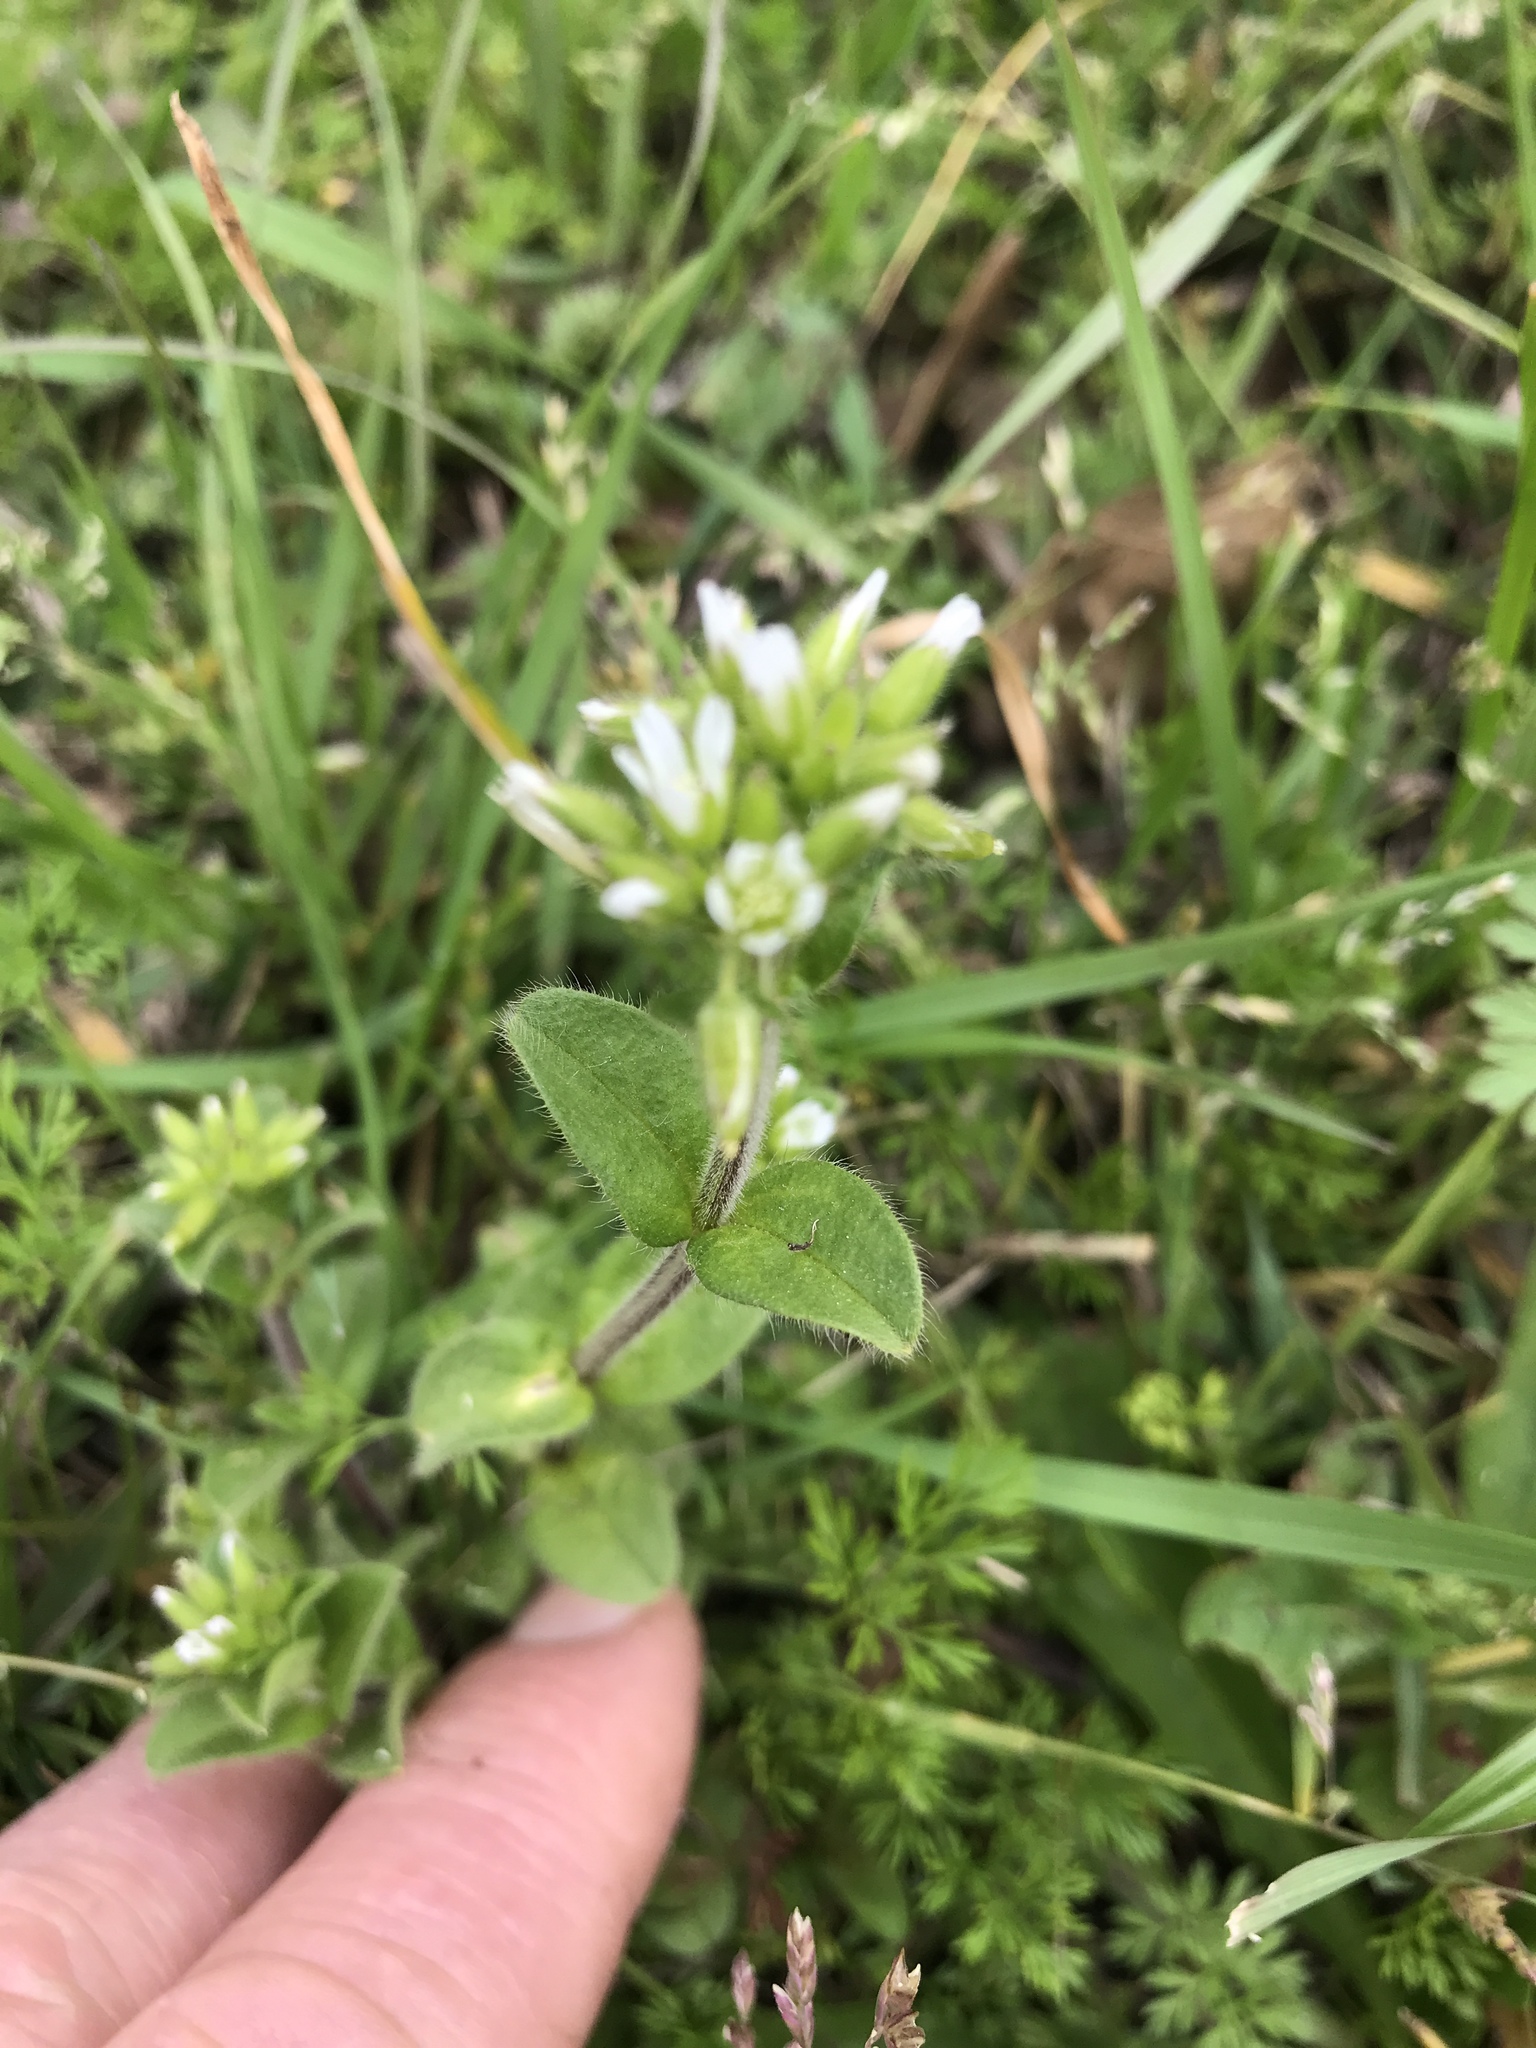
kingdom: Plantae
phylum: Tracheophyta
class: Magnoliopsida
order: Caryophyllales
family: Caryophyllaceae
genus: Cerastium
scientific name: Cerastium glomeratum
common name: Sticky chickweed
